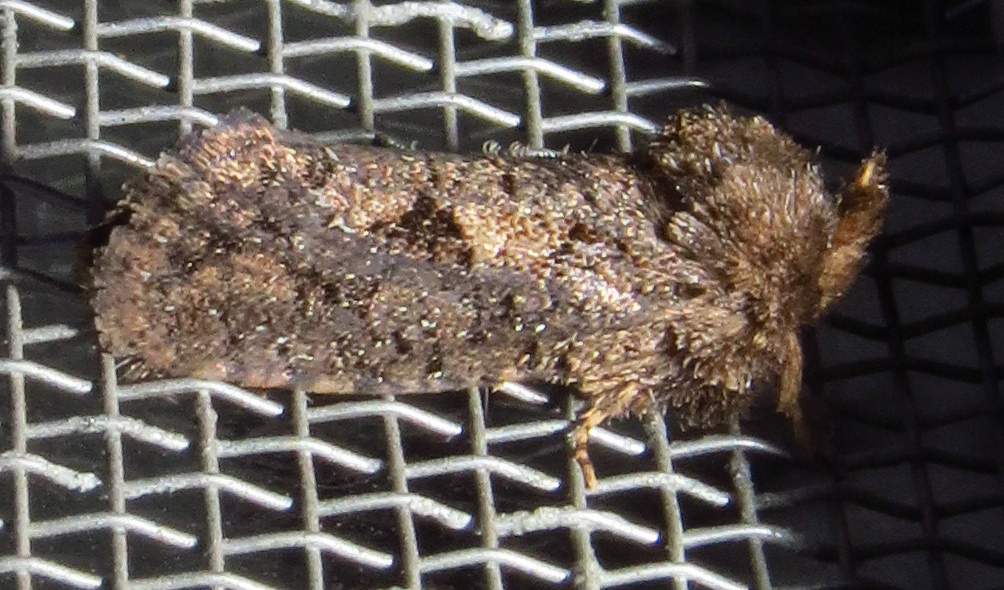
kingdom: Animalia
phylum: Arthropoda
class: Insecta
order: Lepidoptera
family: Tineidae
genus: Acrolophus
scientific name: Acrolophus arcanella
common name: Arcane grass tubeworm moth
